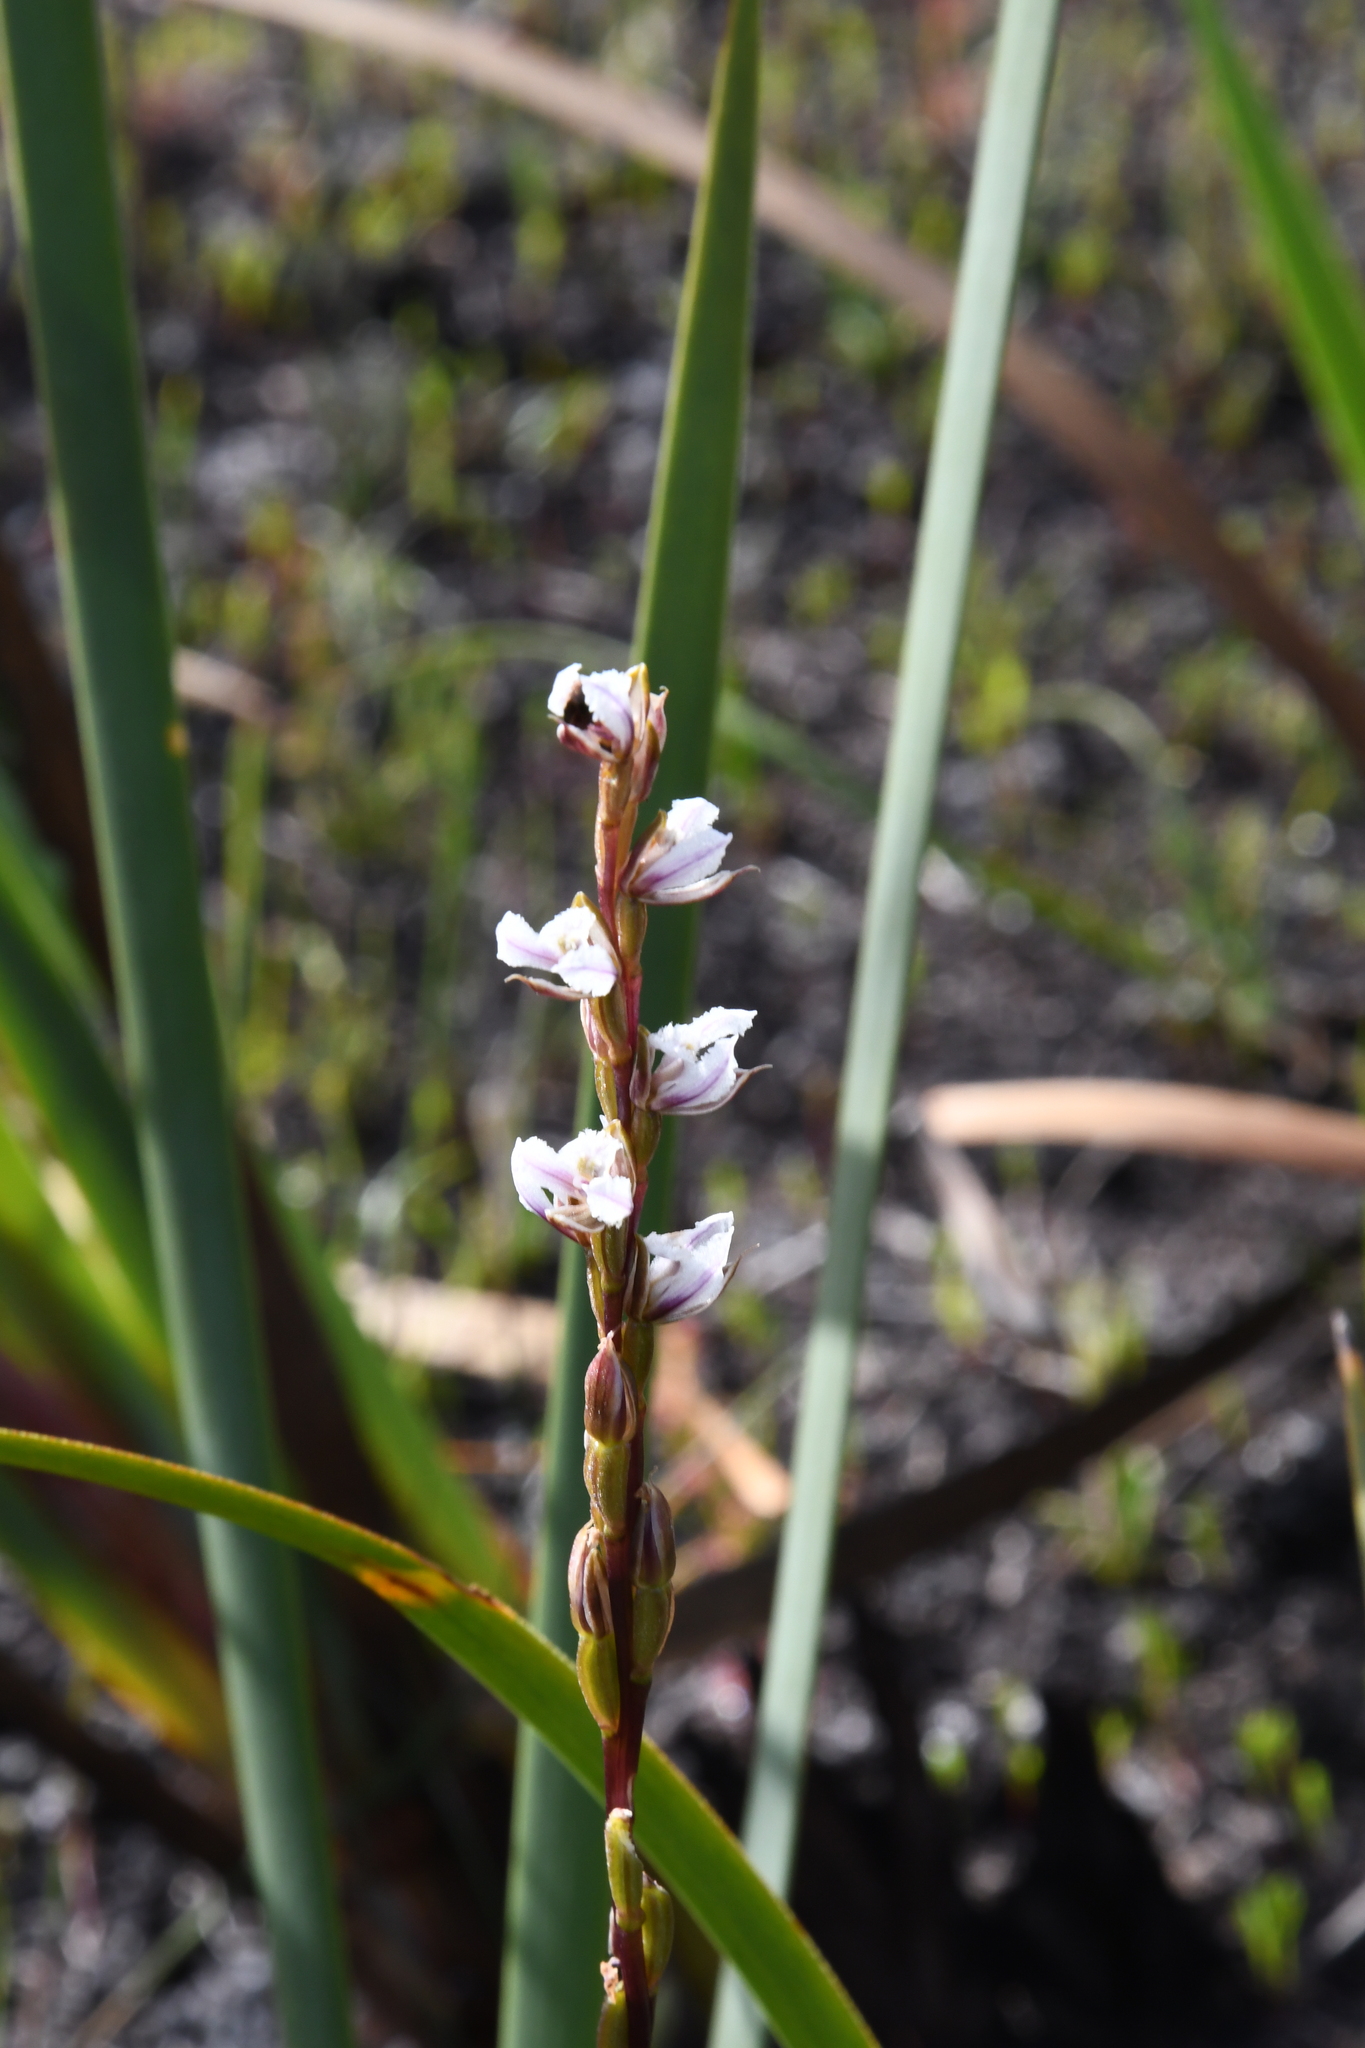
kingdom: Plantae
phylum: Tracheophyta
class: Liliopsida
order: Asparagales
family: Orchidaceae
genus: Prasophyllum
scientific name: Prasophyllum hians
